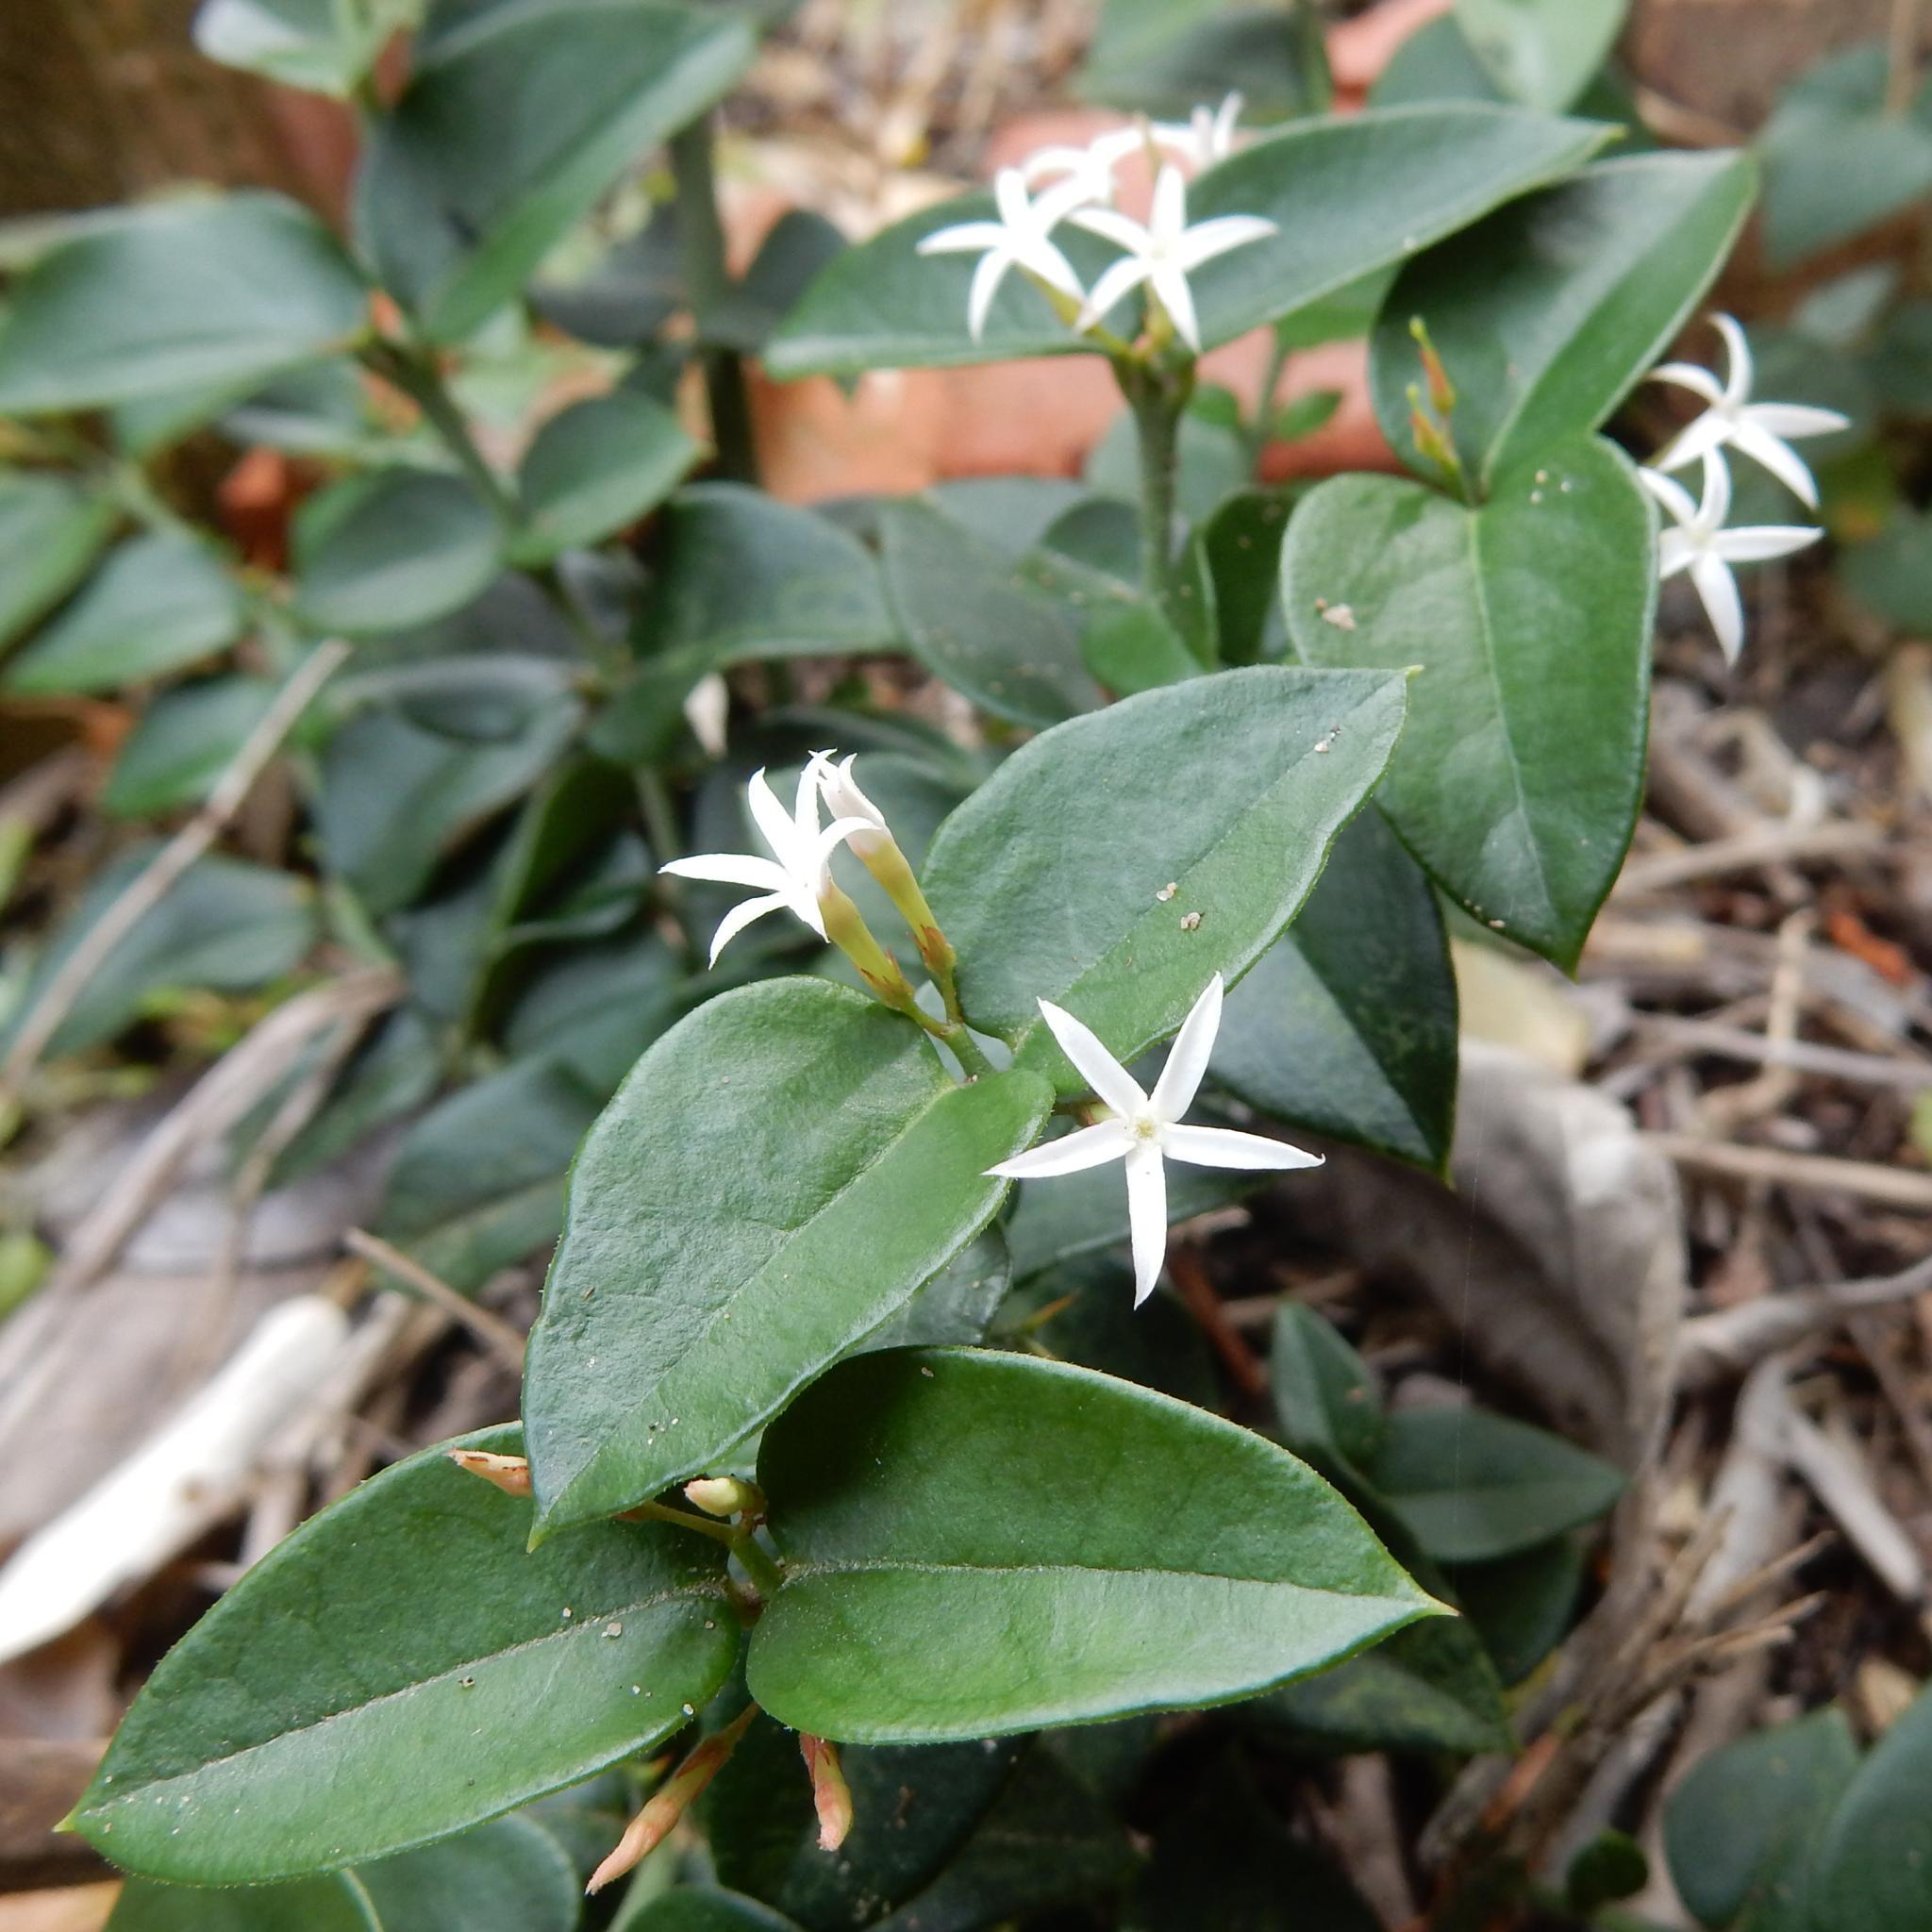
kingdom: Plantae
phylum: Tracheophyta
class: Magnoliopsida
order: Gentianales
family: Apocynaceae
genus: Carissa
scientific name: Carissa bispinosa
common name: Forest num-num
